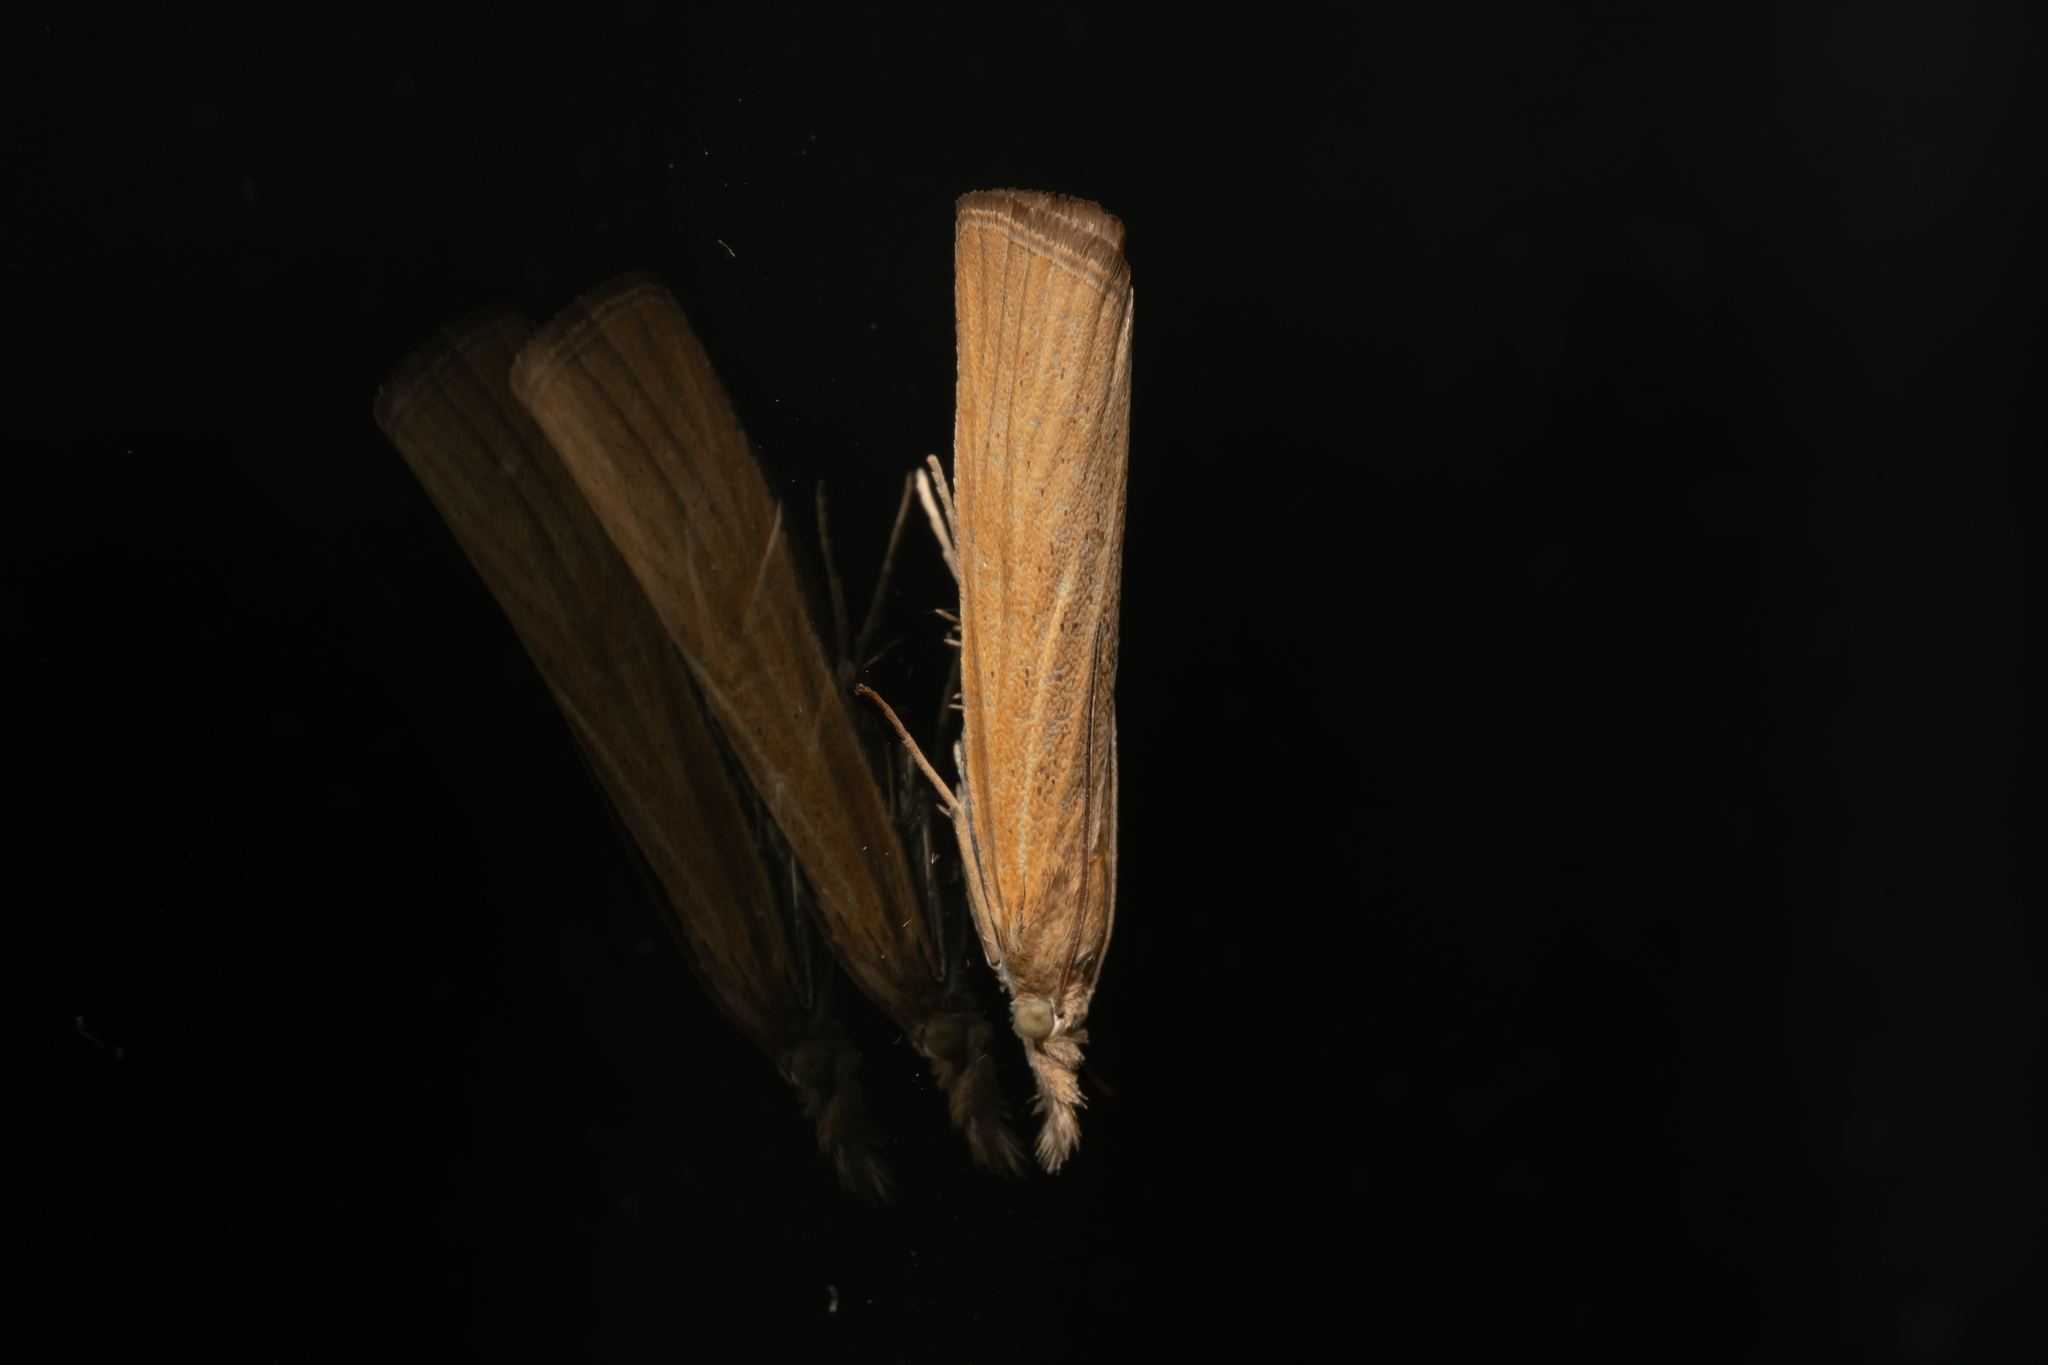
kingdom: Animalia
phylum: Arthropoda
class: Insecta
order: Lepidoptera
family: Crambidae
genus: Pediasia
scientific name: Pediasia luteella
